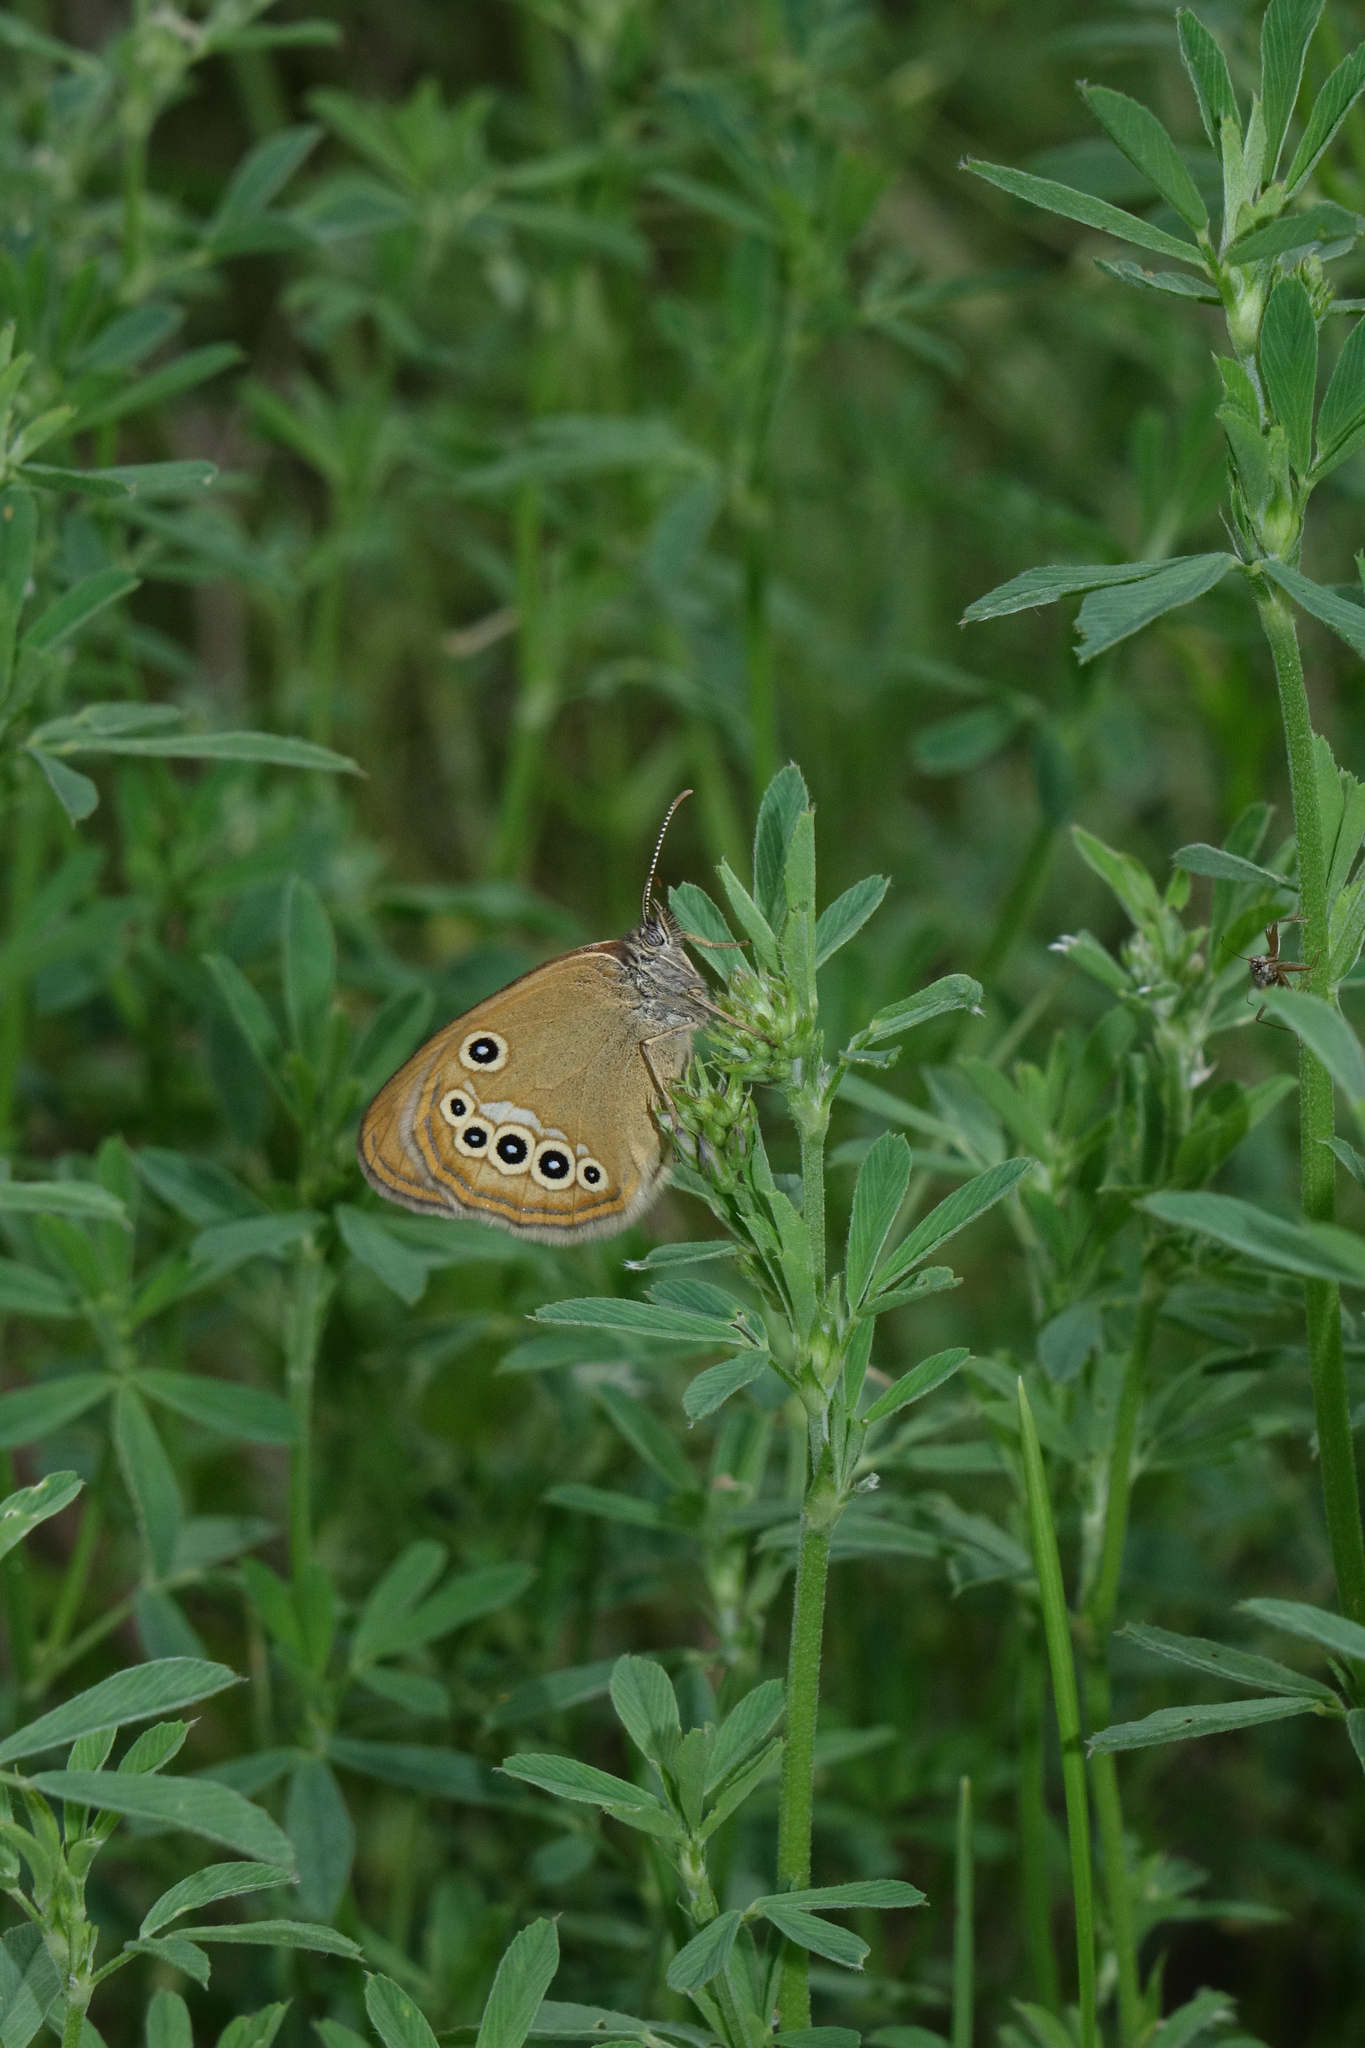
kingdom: Animalia
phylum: Arthropoda
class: Insecta
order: Lepidoptera
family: Nymphalidae
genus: Coenonympha
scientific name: Coenonympha oedippus
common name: False ringlet
